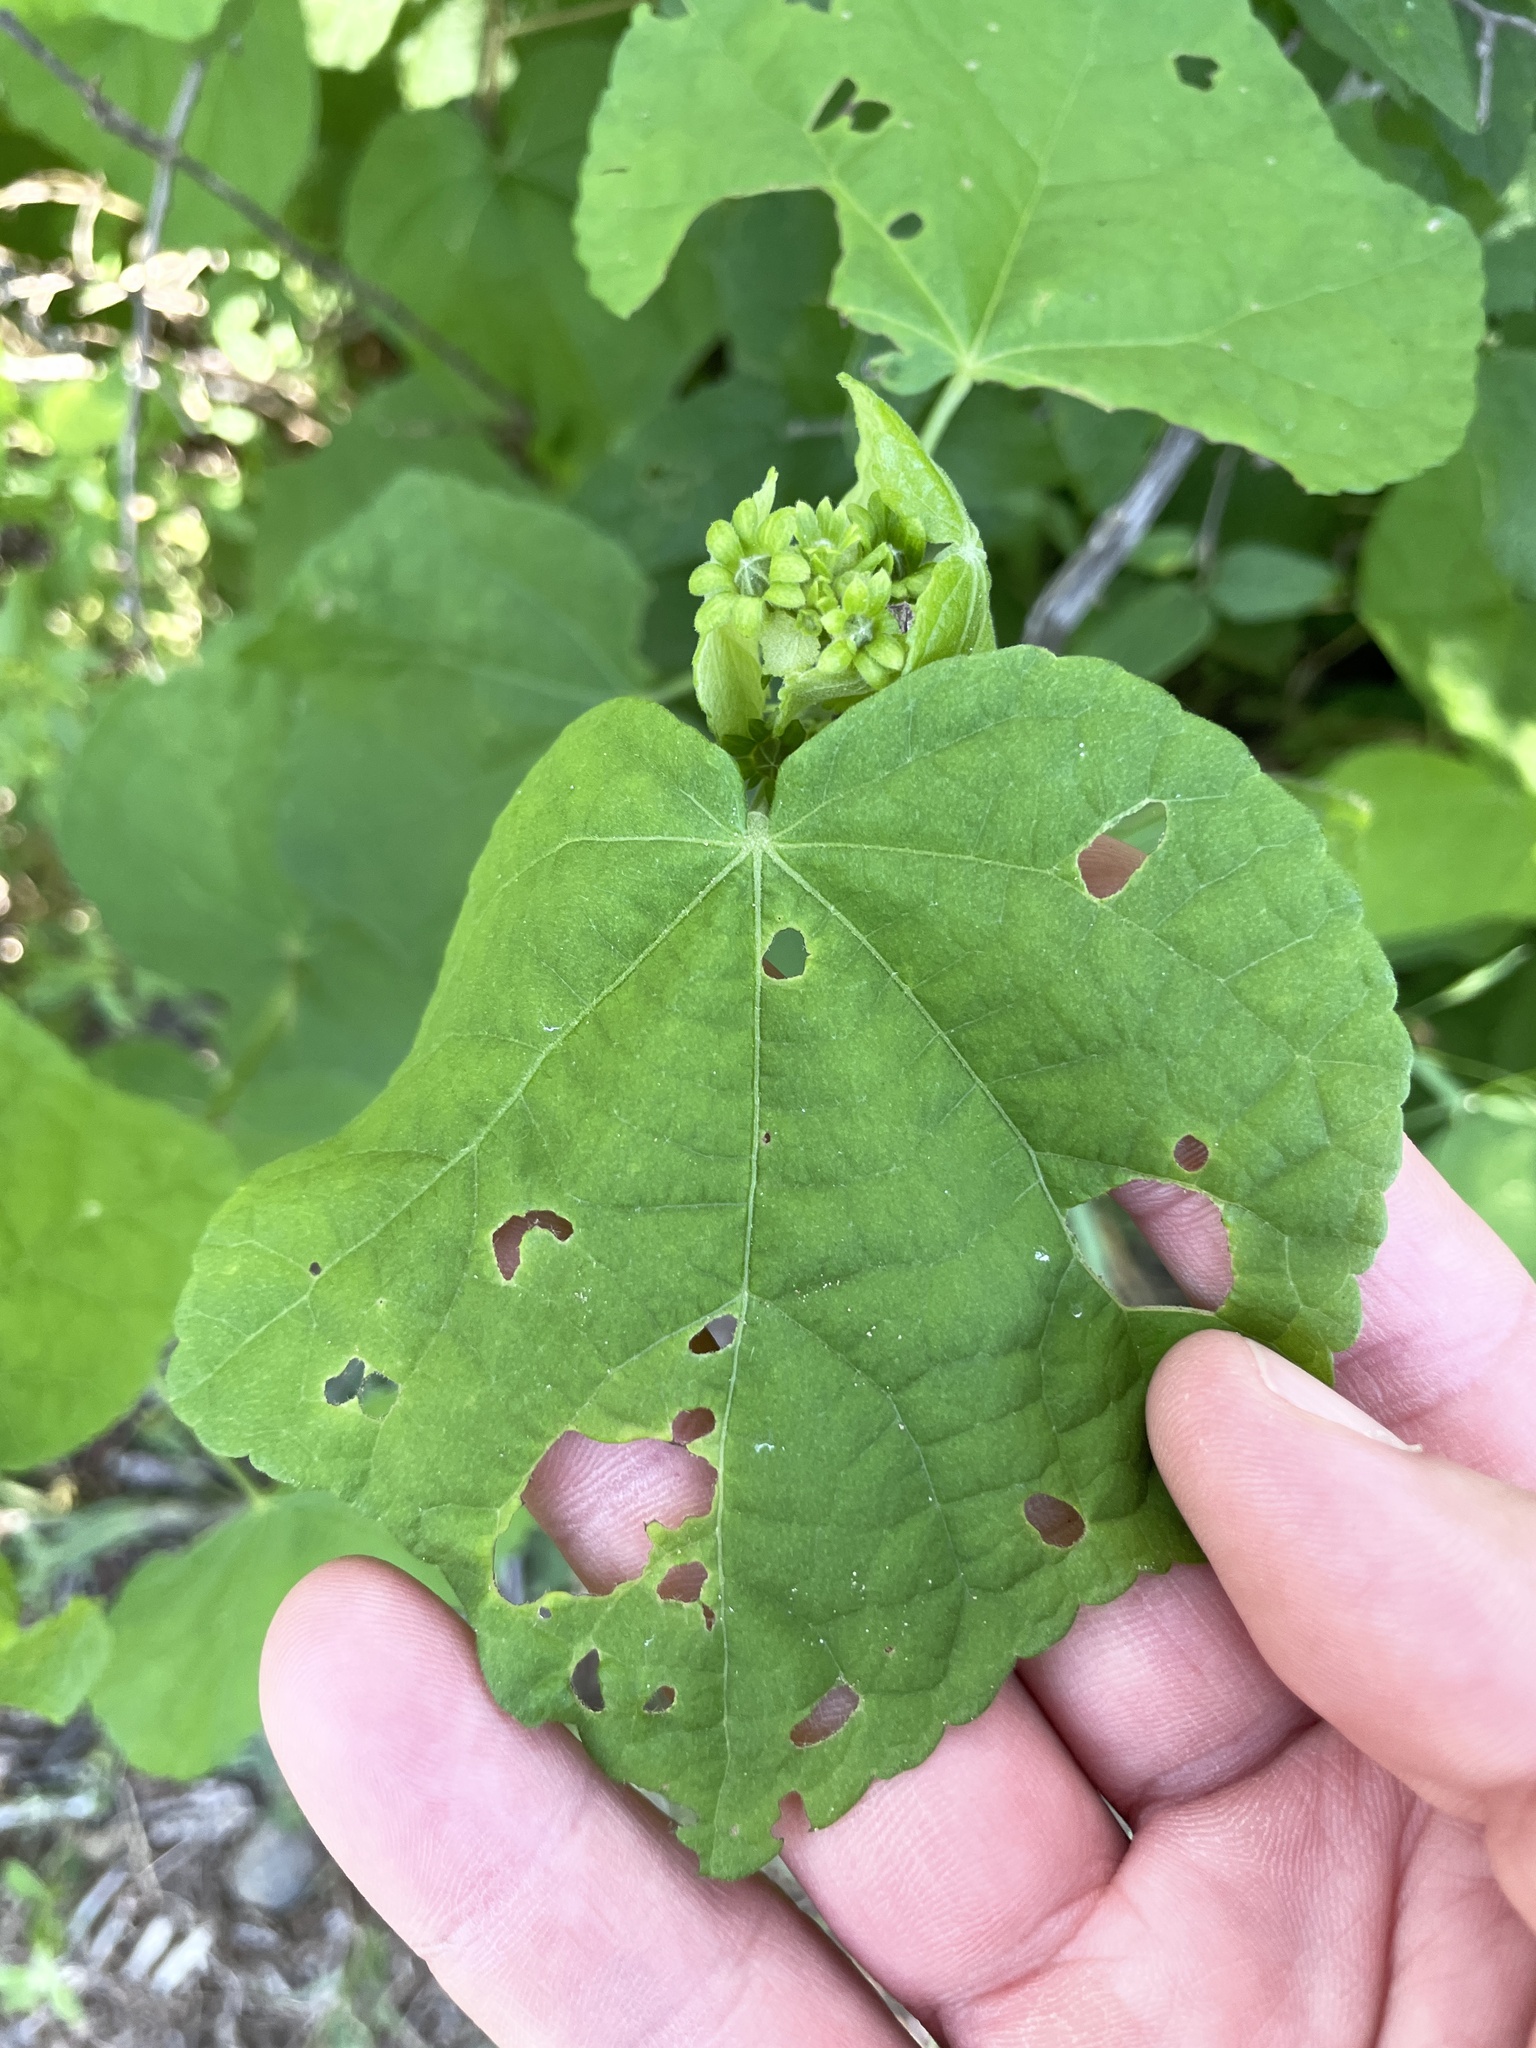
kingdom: Plantae
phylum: Tracheophyta
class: Magnoliopsida
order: Malvales
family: Malvaceae
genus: Malvaviscus
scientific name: Malvaviscus arboreus
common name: Wax mallow
